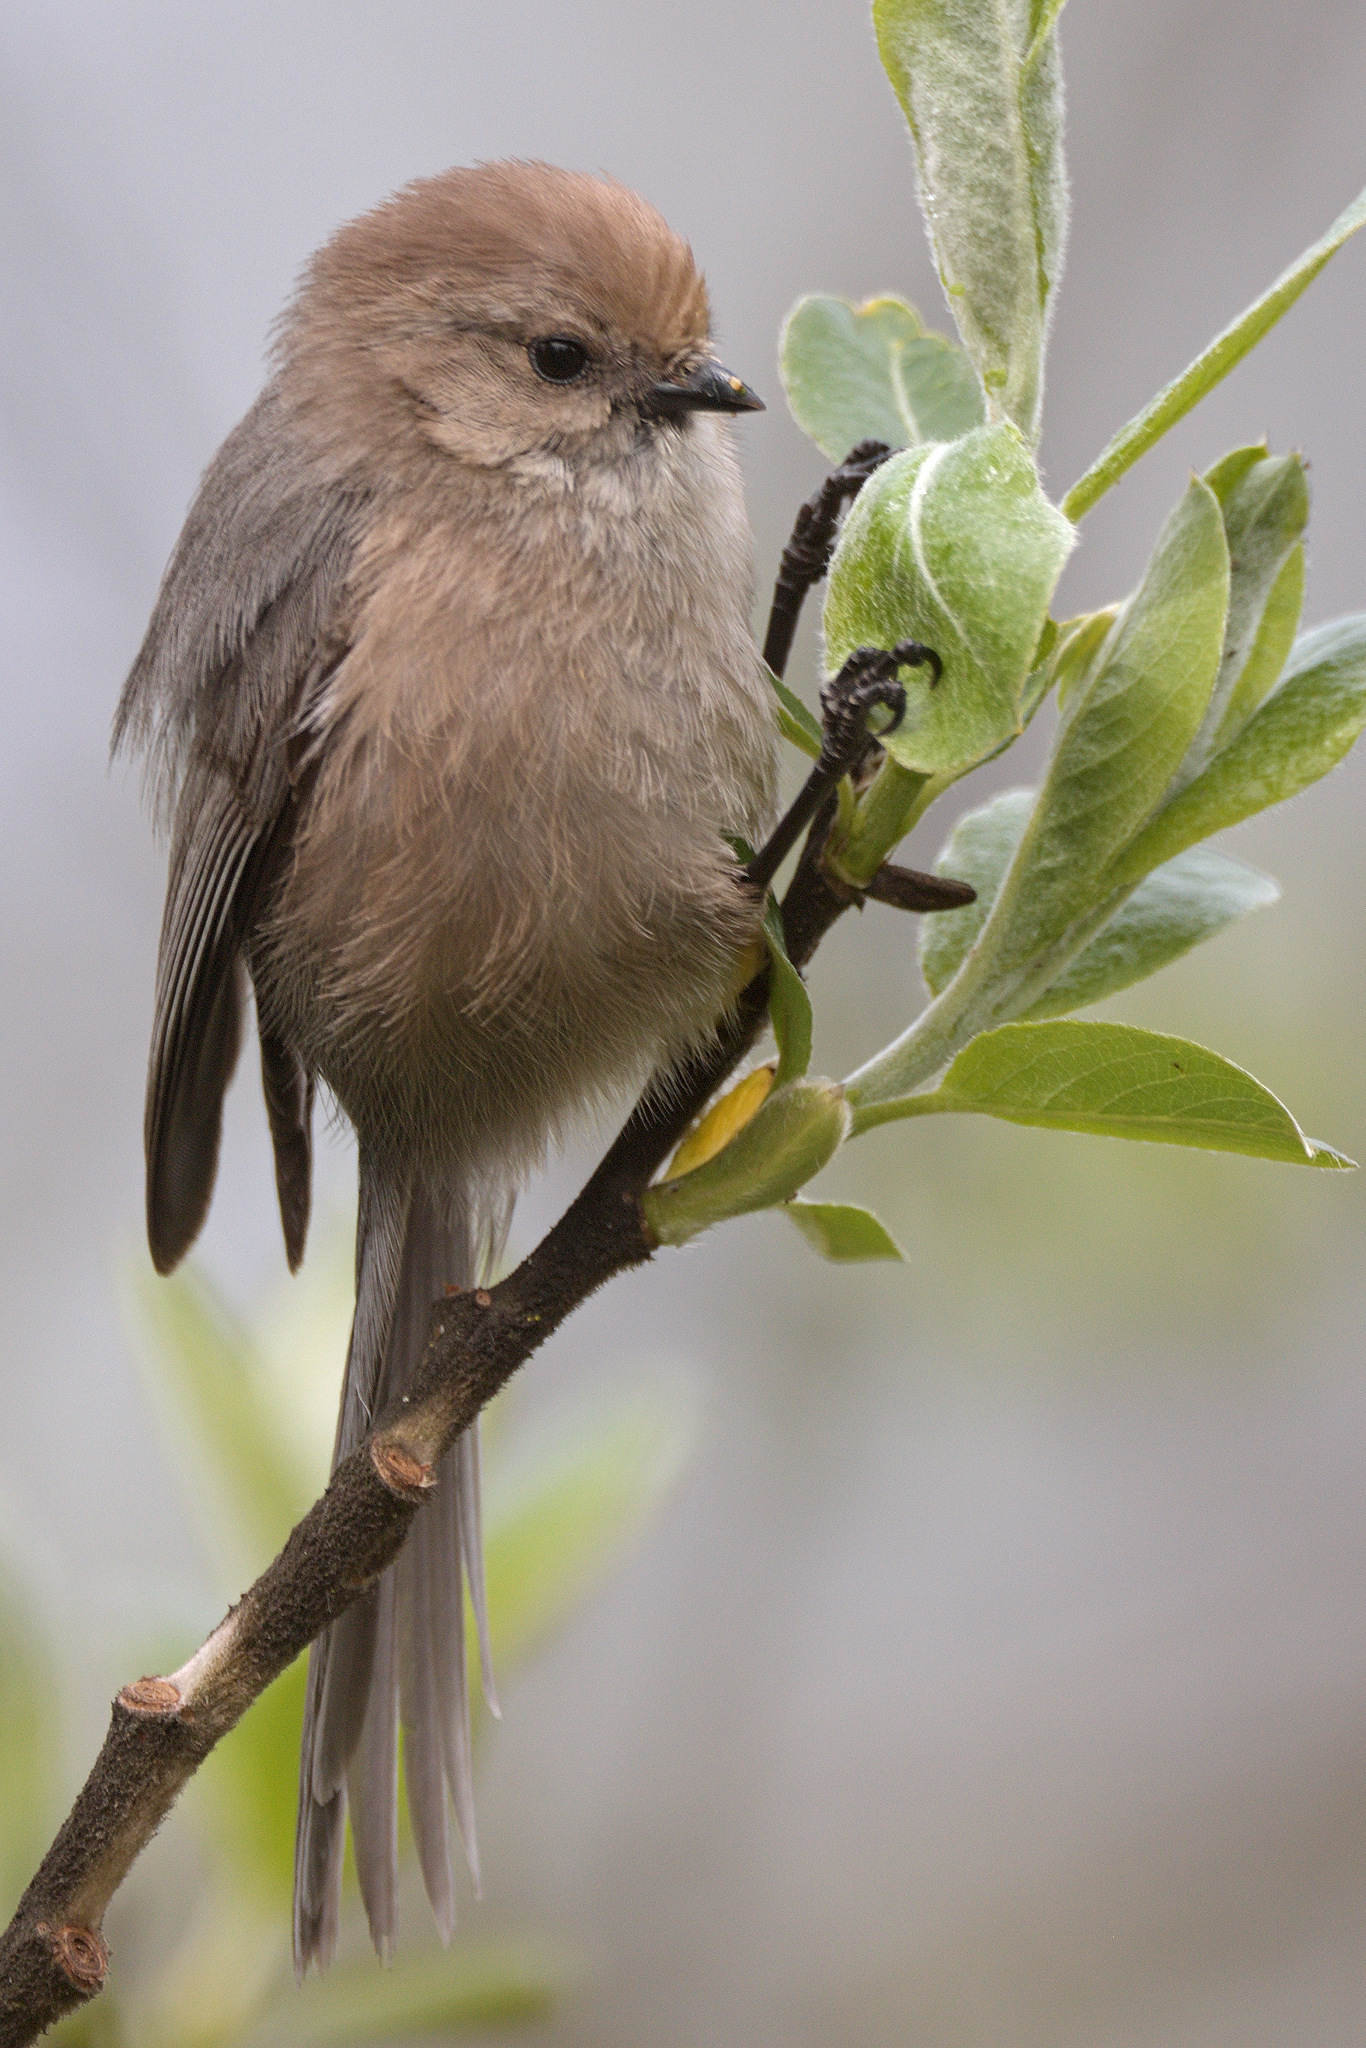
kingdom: Animalia
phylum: Chordata
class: Aves
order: Passeriformes
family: Aegithalidae
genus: Psaltriparus
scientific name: Psaltriparus minimus
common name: American bushtit
